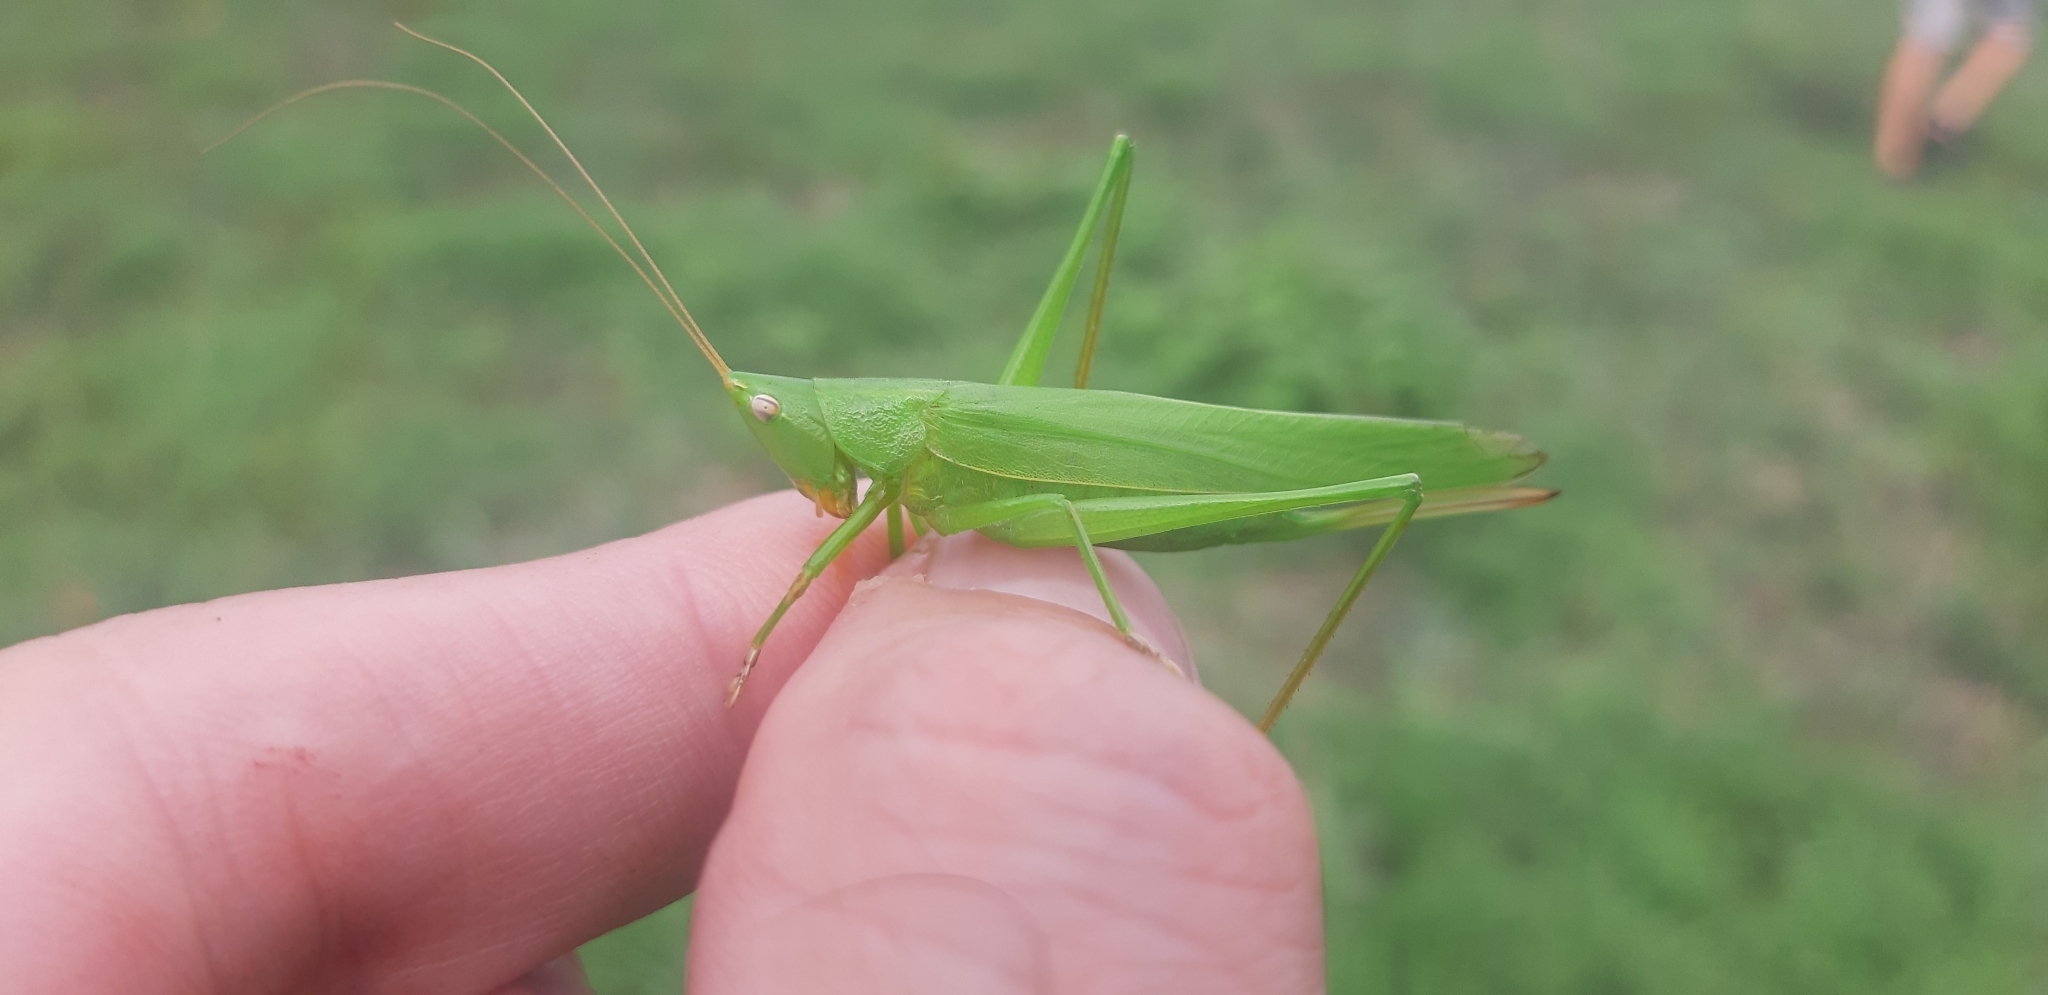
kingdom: Animalia
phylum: Arthropoda
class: Insecta
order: Orthoptera
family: Tettigoniidae
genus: Ruspolia
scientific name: Ruspolia nitidula
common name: Large conehead
